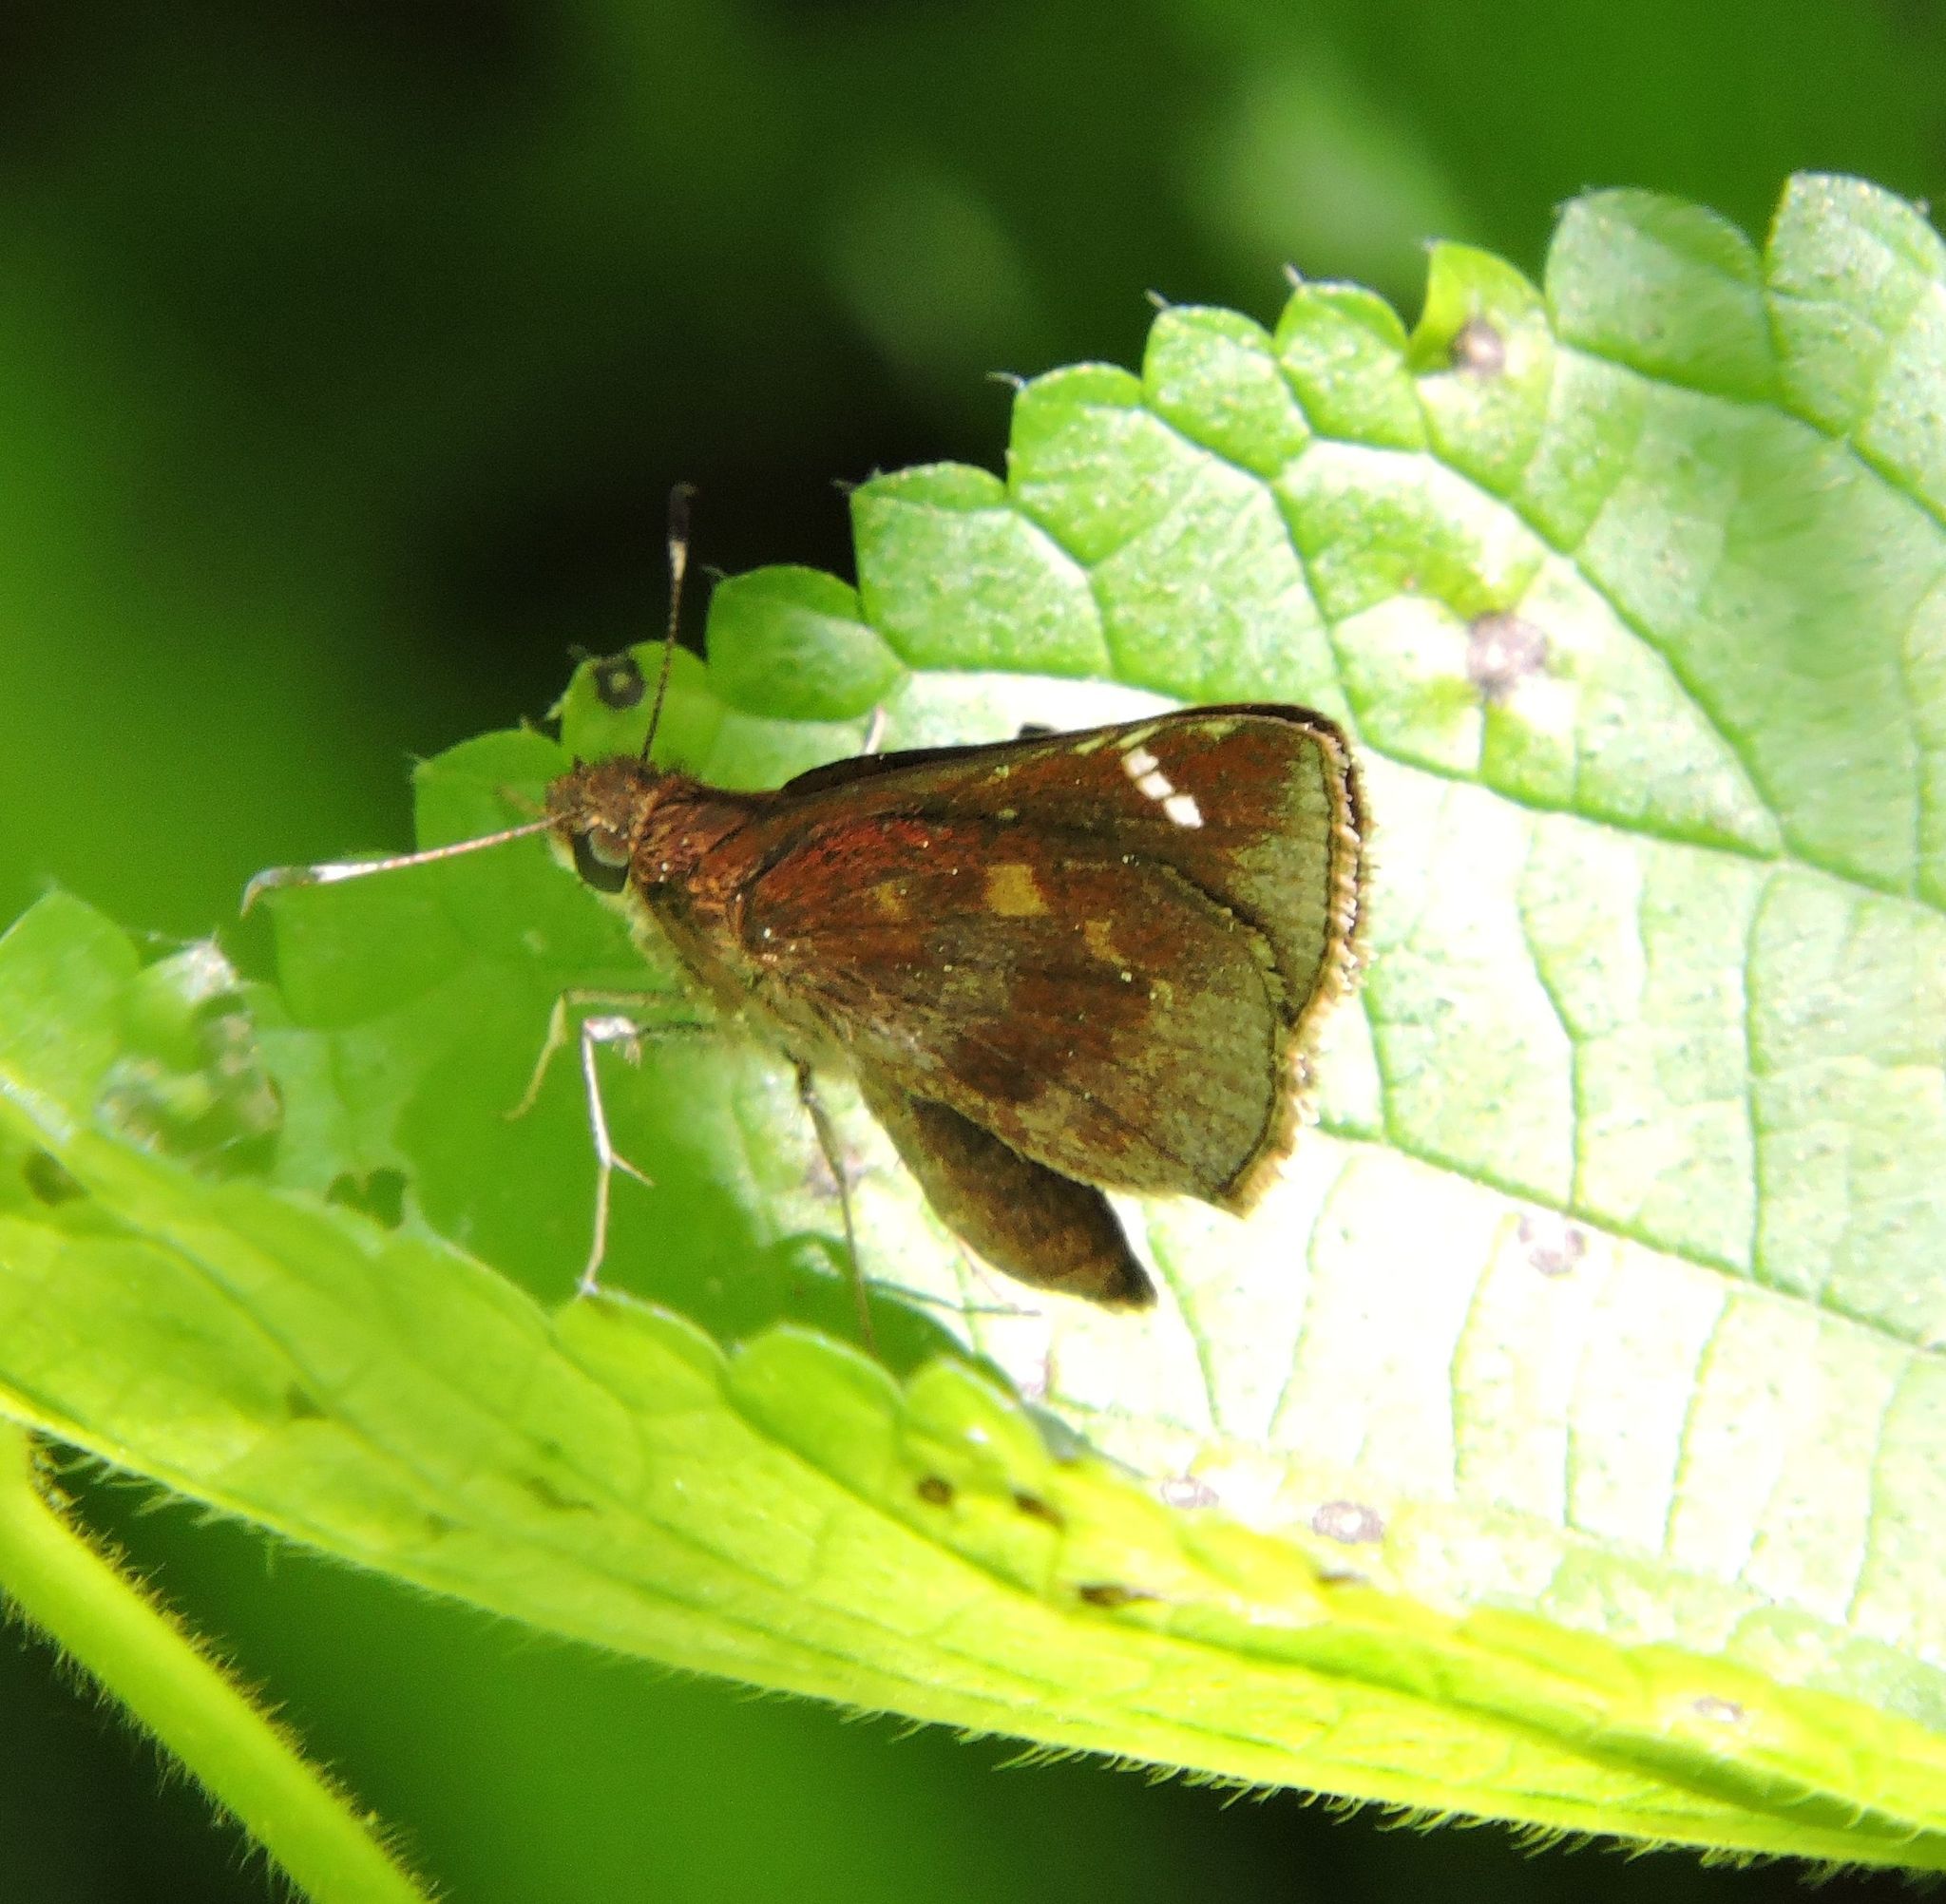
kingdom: Animalia
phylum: Arthropoda
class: Insecta
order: Lepidoptera
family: Hesperiidae
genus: Lerema
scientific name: Lerema accius
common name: Clouded skipper
